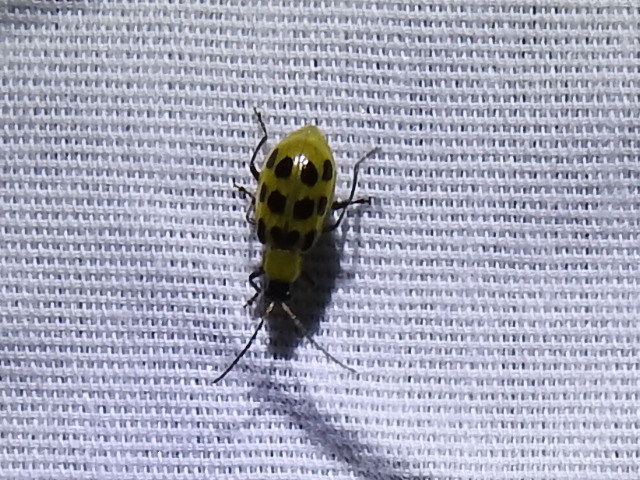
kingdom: Animalia
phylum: Arthropoda
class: Insecta
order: Coleoptera
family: Chrysomelidae
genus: Diabrotica
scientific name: Diabrotica undecimpunctata
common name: Spotted cucumber beetle
